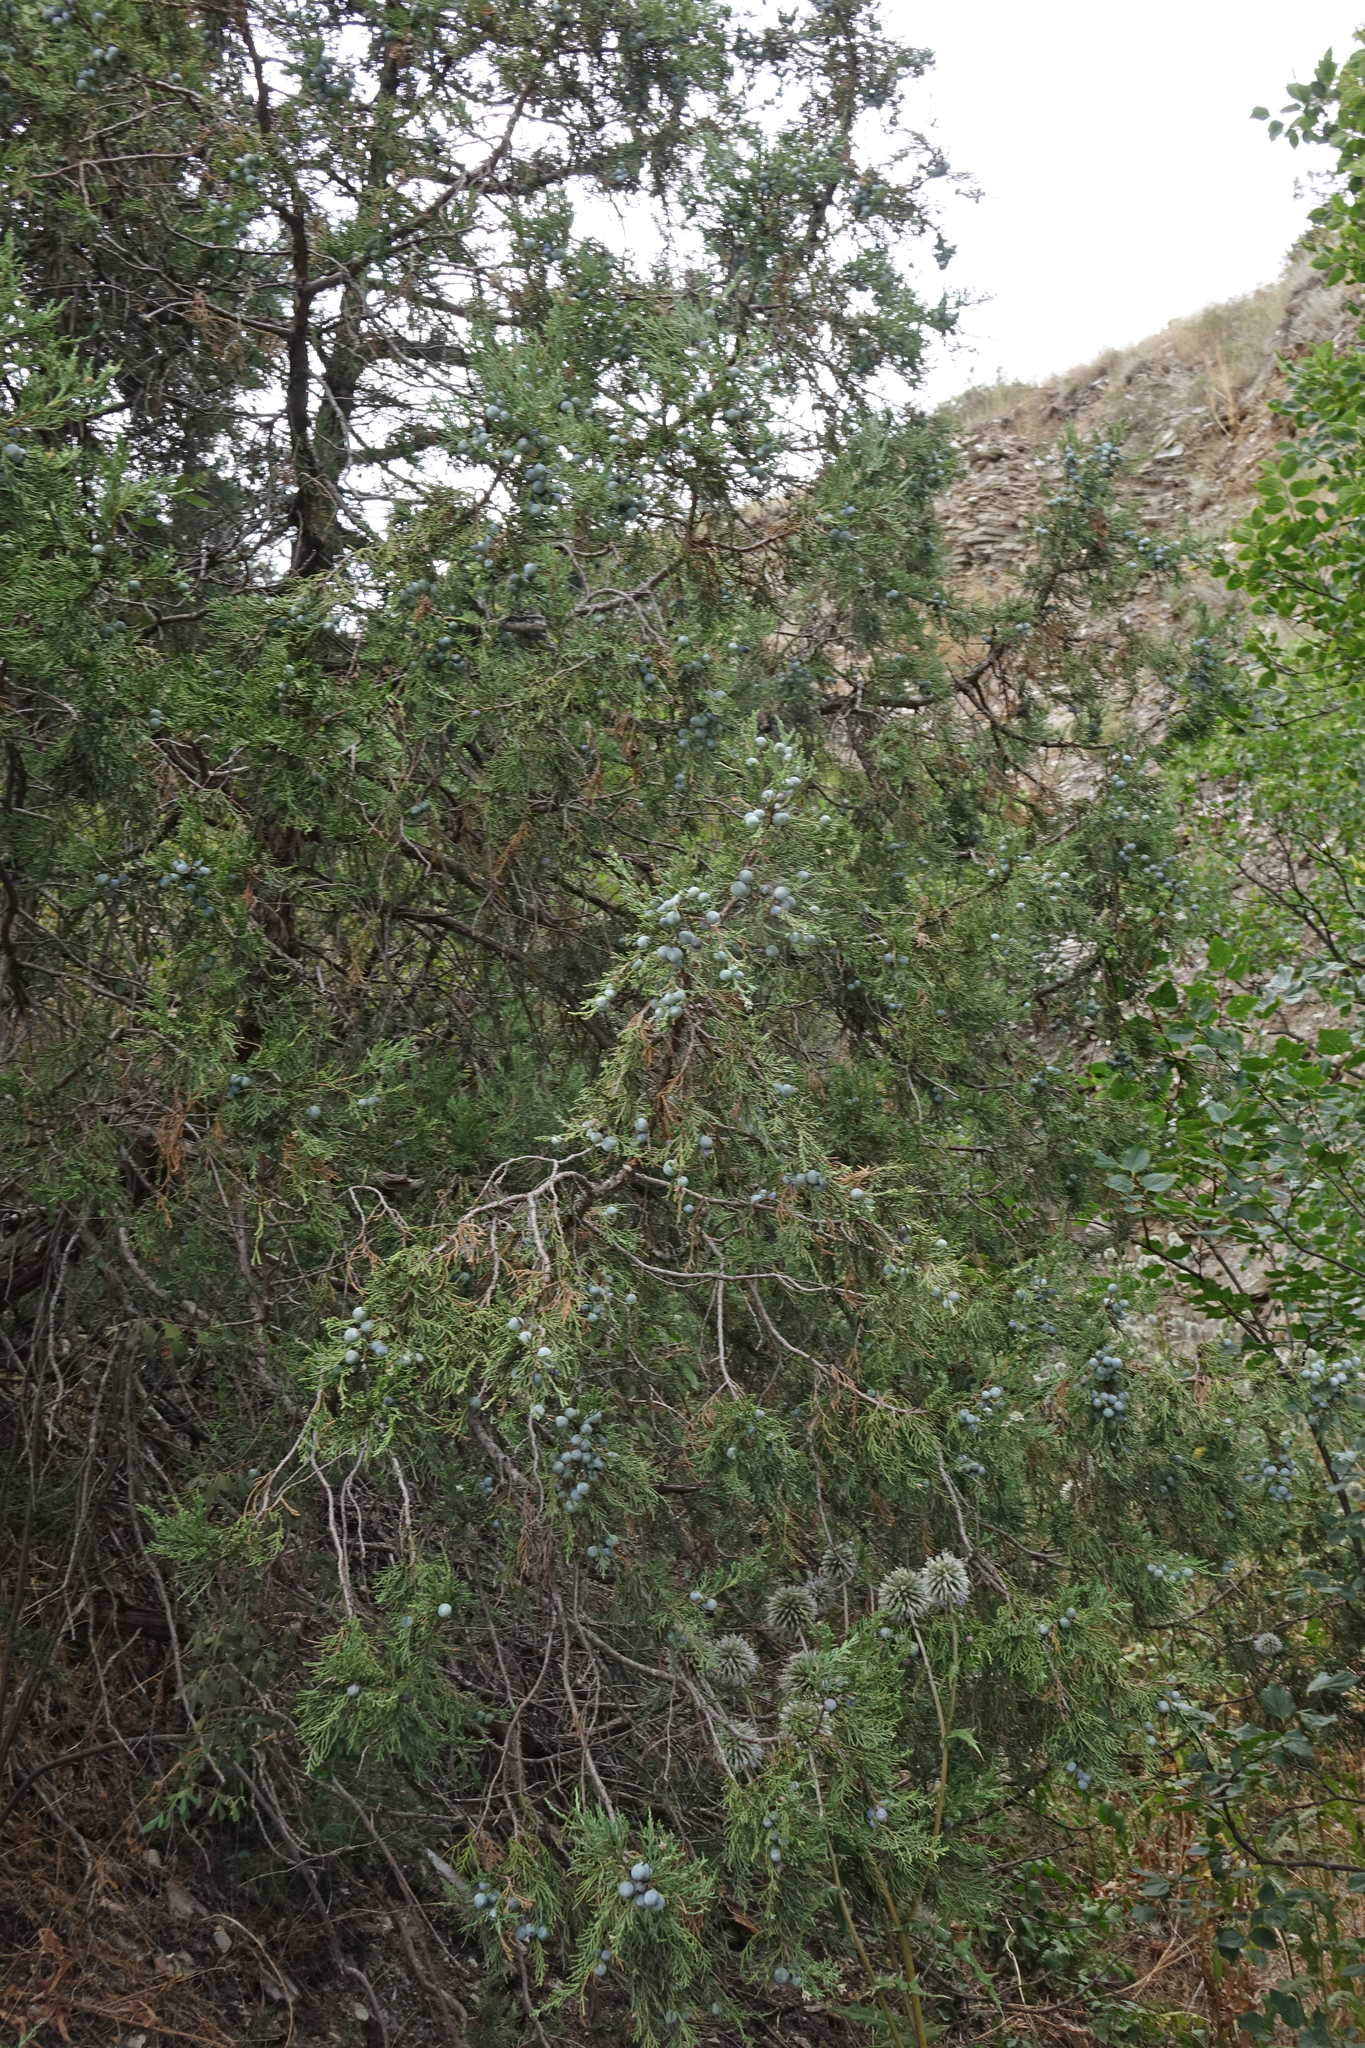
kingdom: Plantae
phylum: Tracheophyta
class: Pinopsida
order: Pinales
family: Cupressaceae
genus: Juniperus
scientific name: Juniperus excelsa
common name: Crimean juniper
